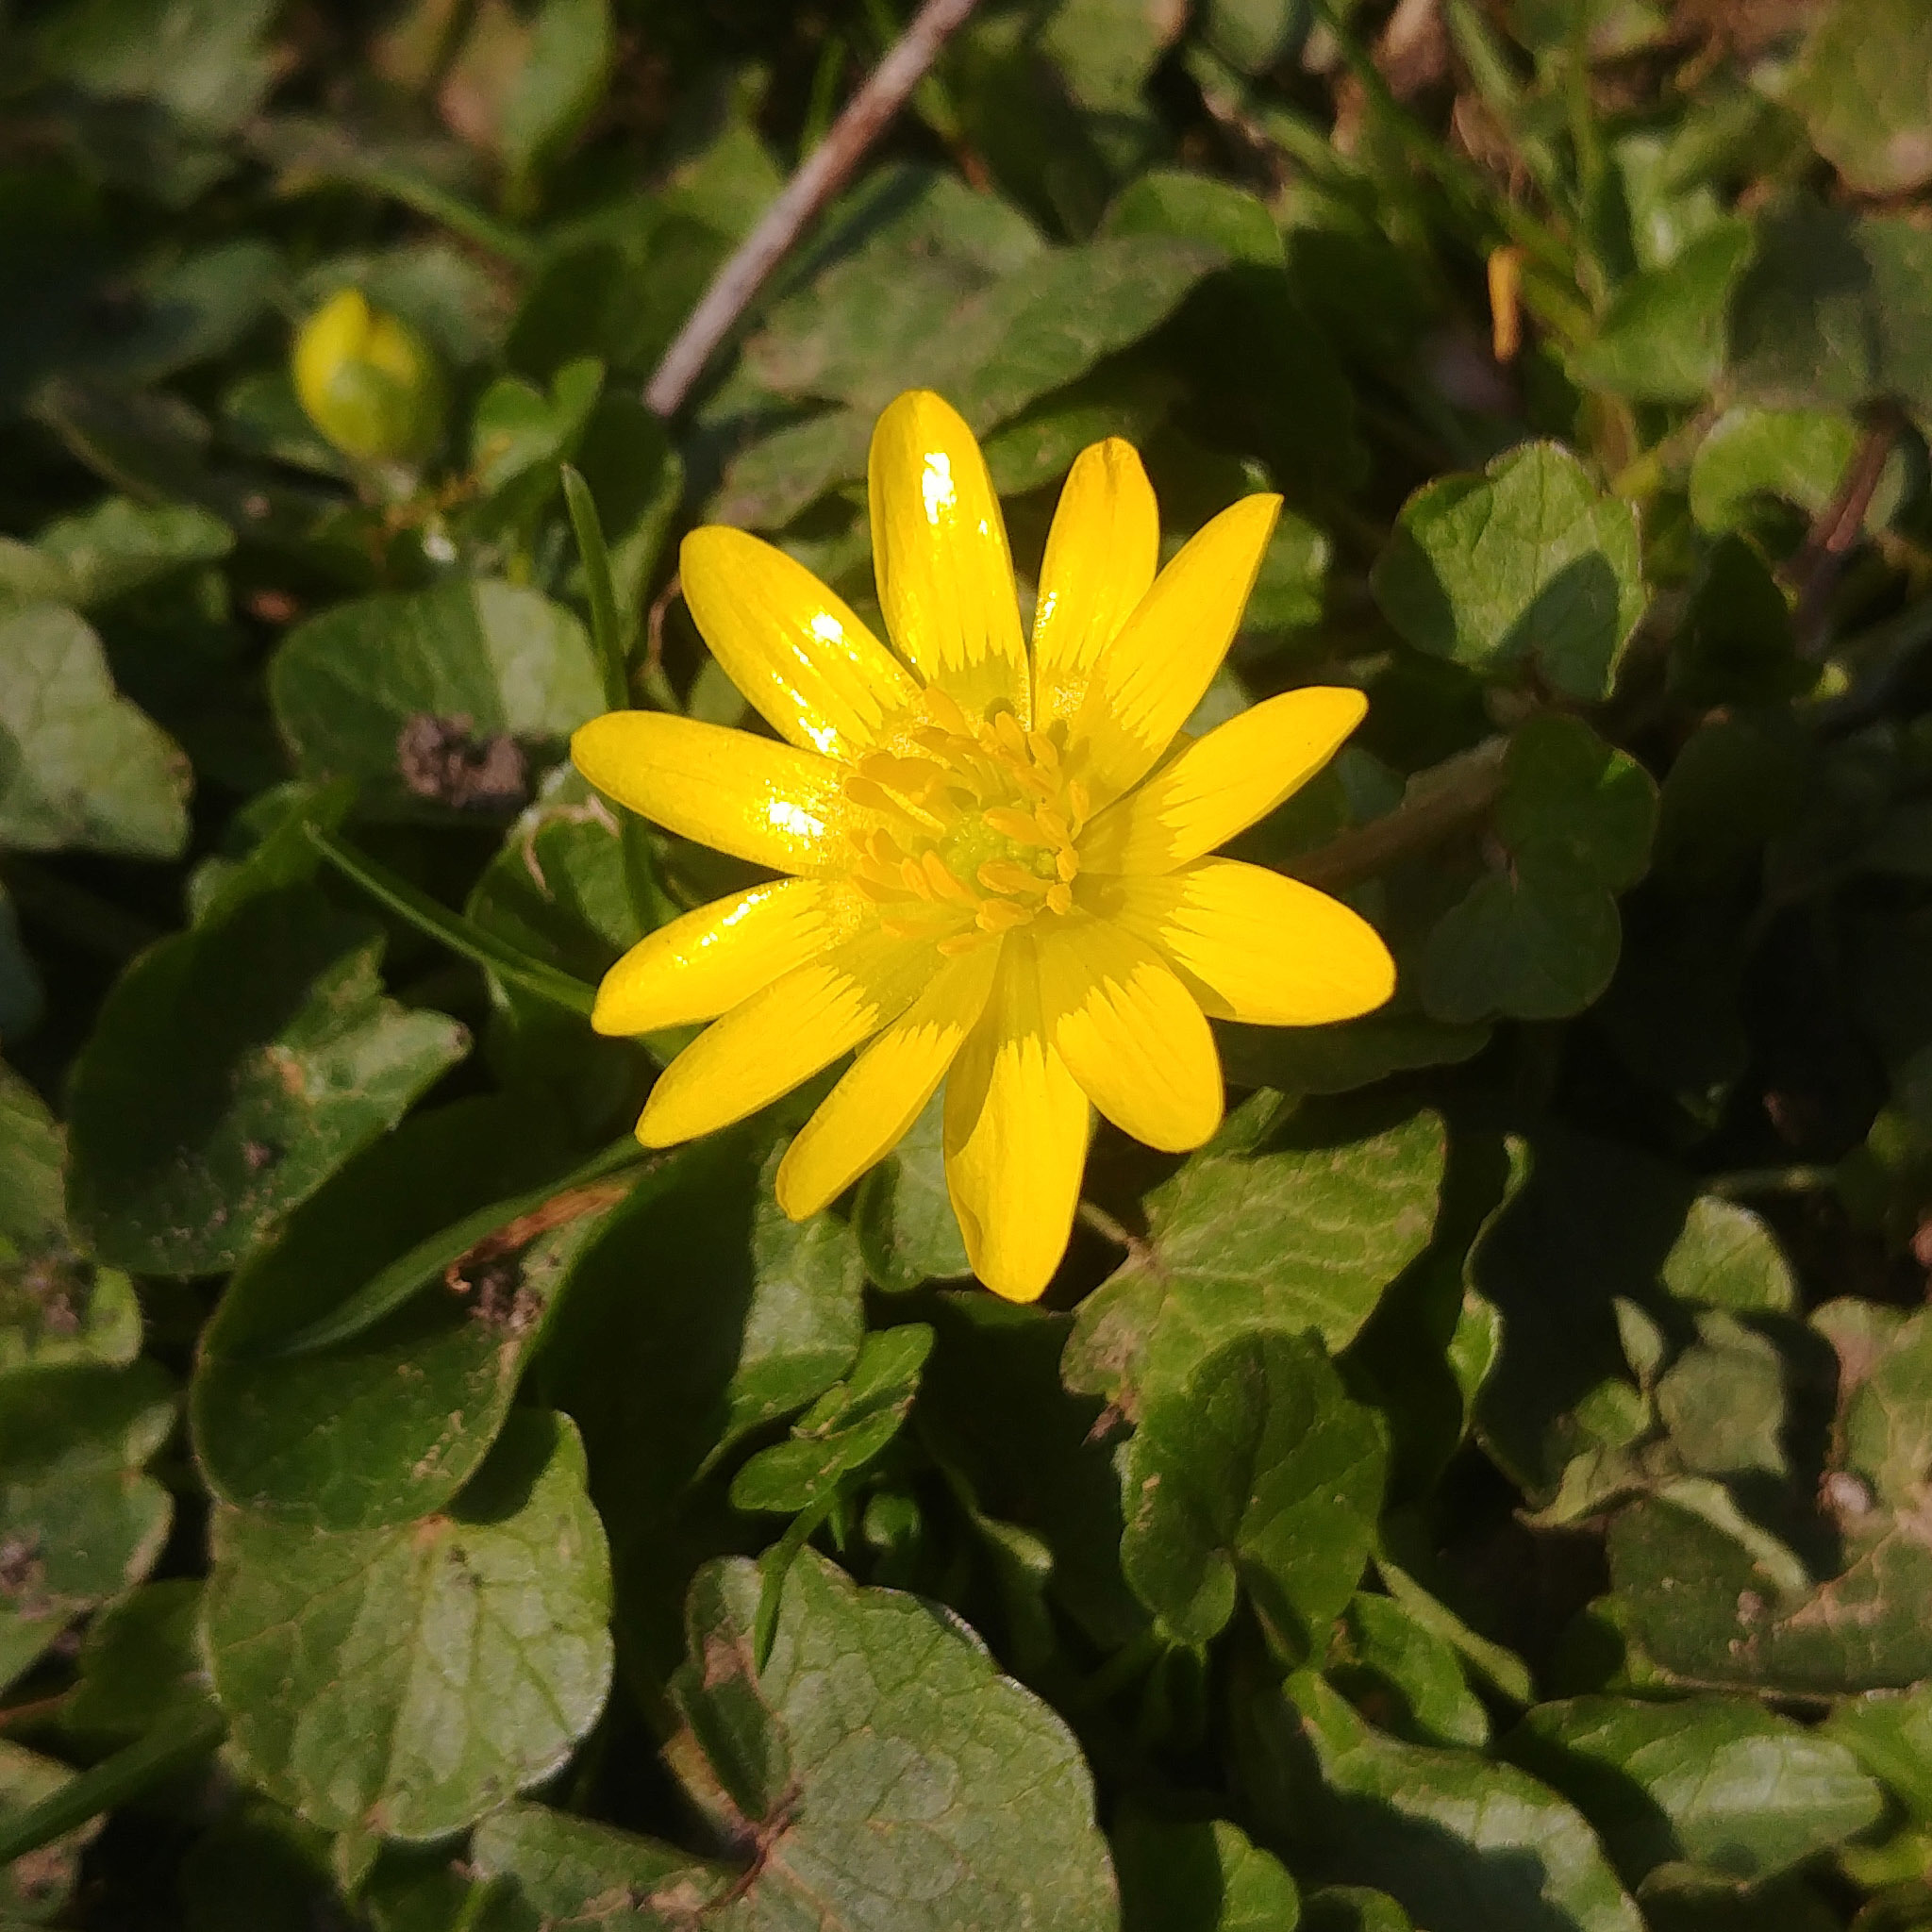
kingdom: Plantae
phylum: Tracheophyta
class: Magnoliopsida
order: Ranunculales
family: Ranunculaceae
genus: Ficaria
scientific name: Ficaria verna
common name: Lesser celandine
